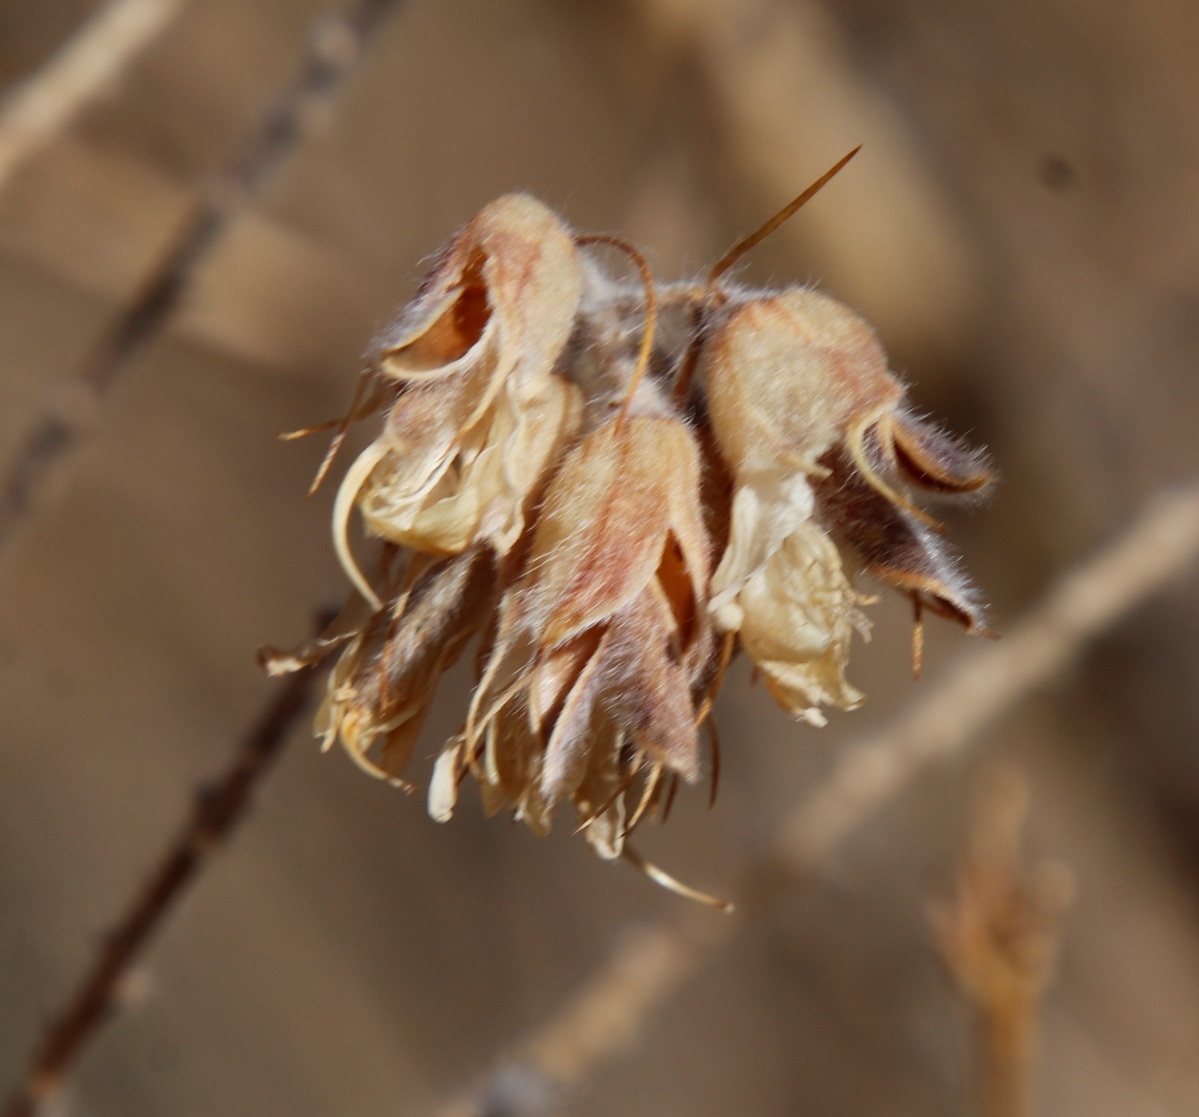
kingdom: Plantae
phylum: Tracheophyta
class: Magnoliopsida
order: Fabales
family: Fabaceae
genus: Aspalathus
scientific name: Aspalathus decora
